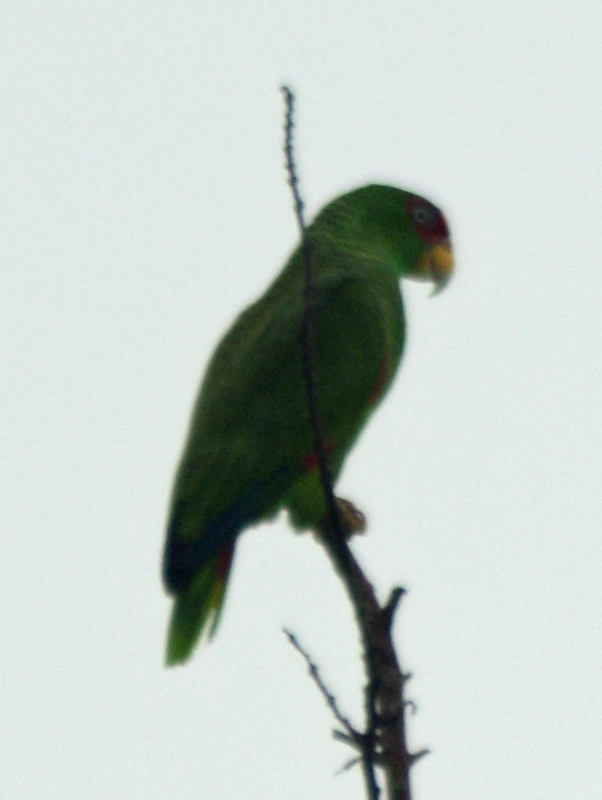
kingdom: Animalia
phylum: Chordata
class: Aves
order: Psittaciformes
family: Psittacidae
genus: Amazona
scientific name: Amazona albifrons
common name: White-fronted amazon
